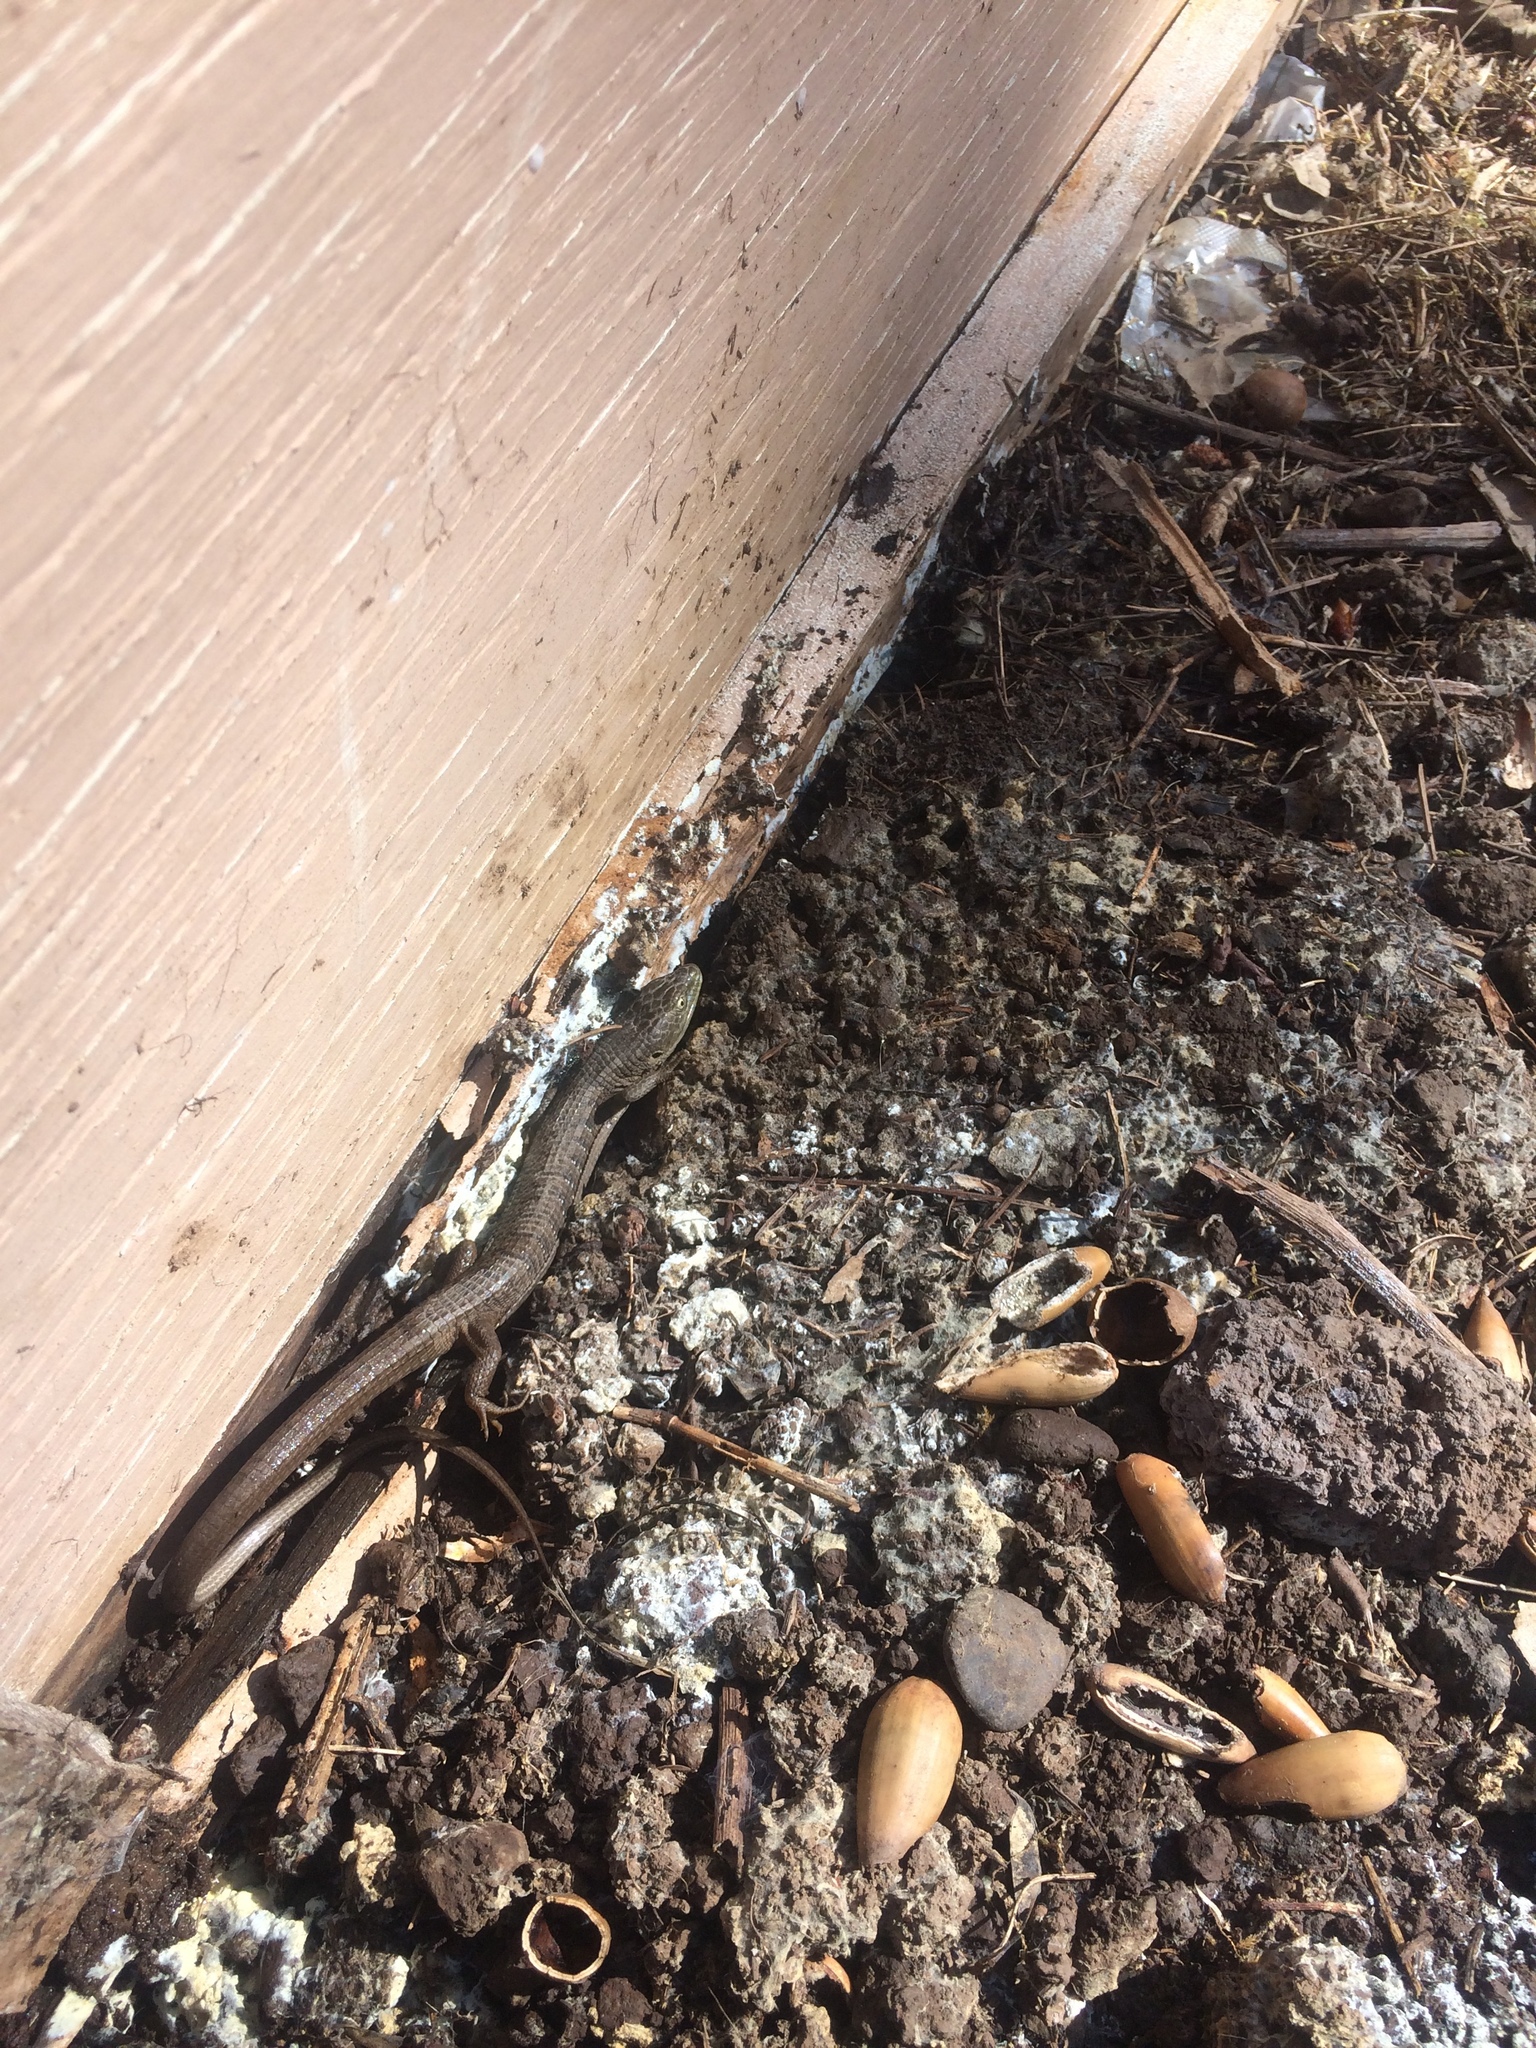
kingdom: Animalia
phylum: Chordata
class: Squamata
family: Anguidae
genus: Elgaria
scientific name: Elgaria multicarinata
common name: Southern alligator lizard
